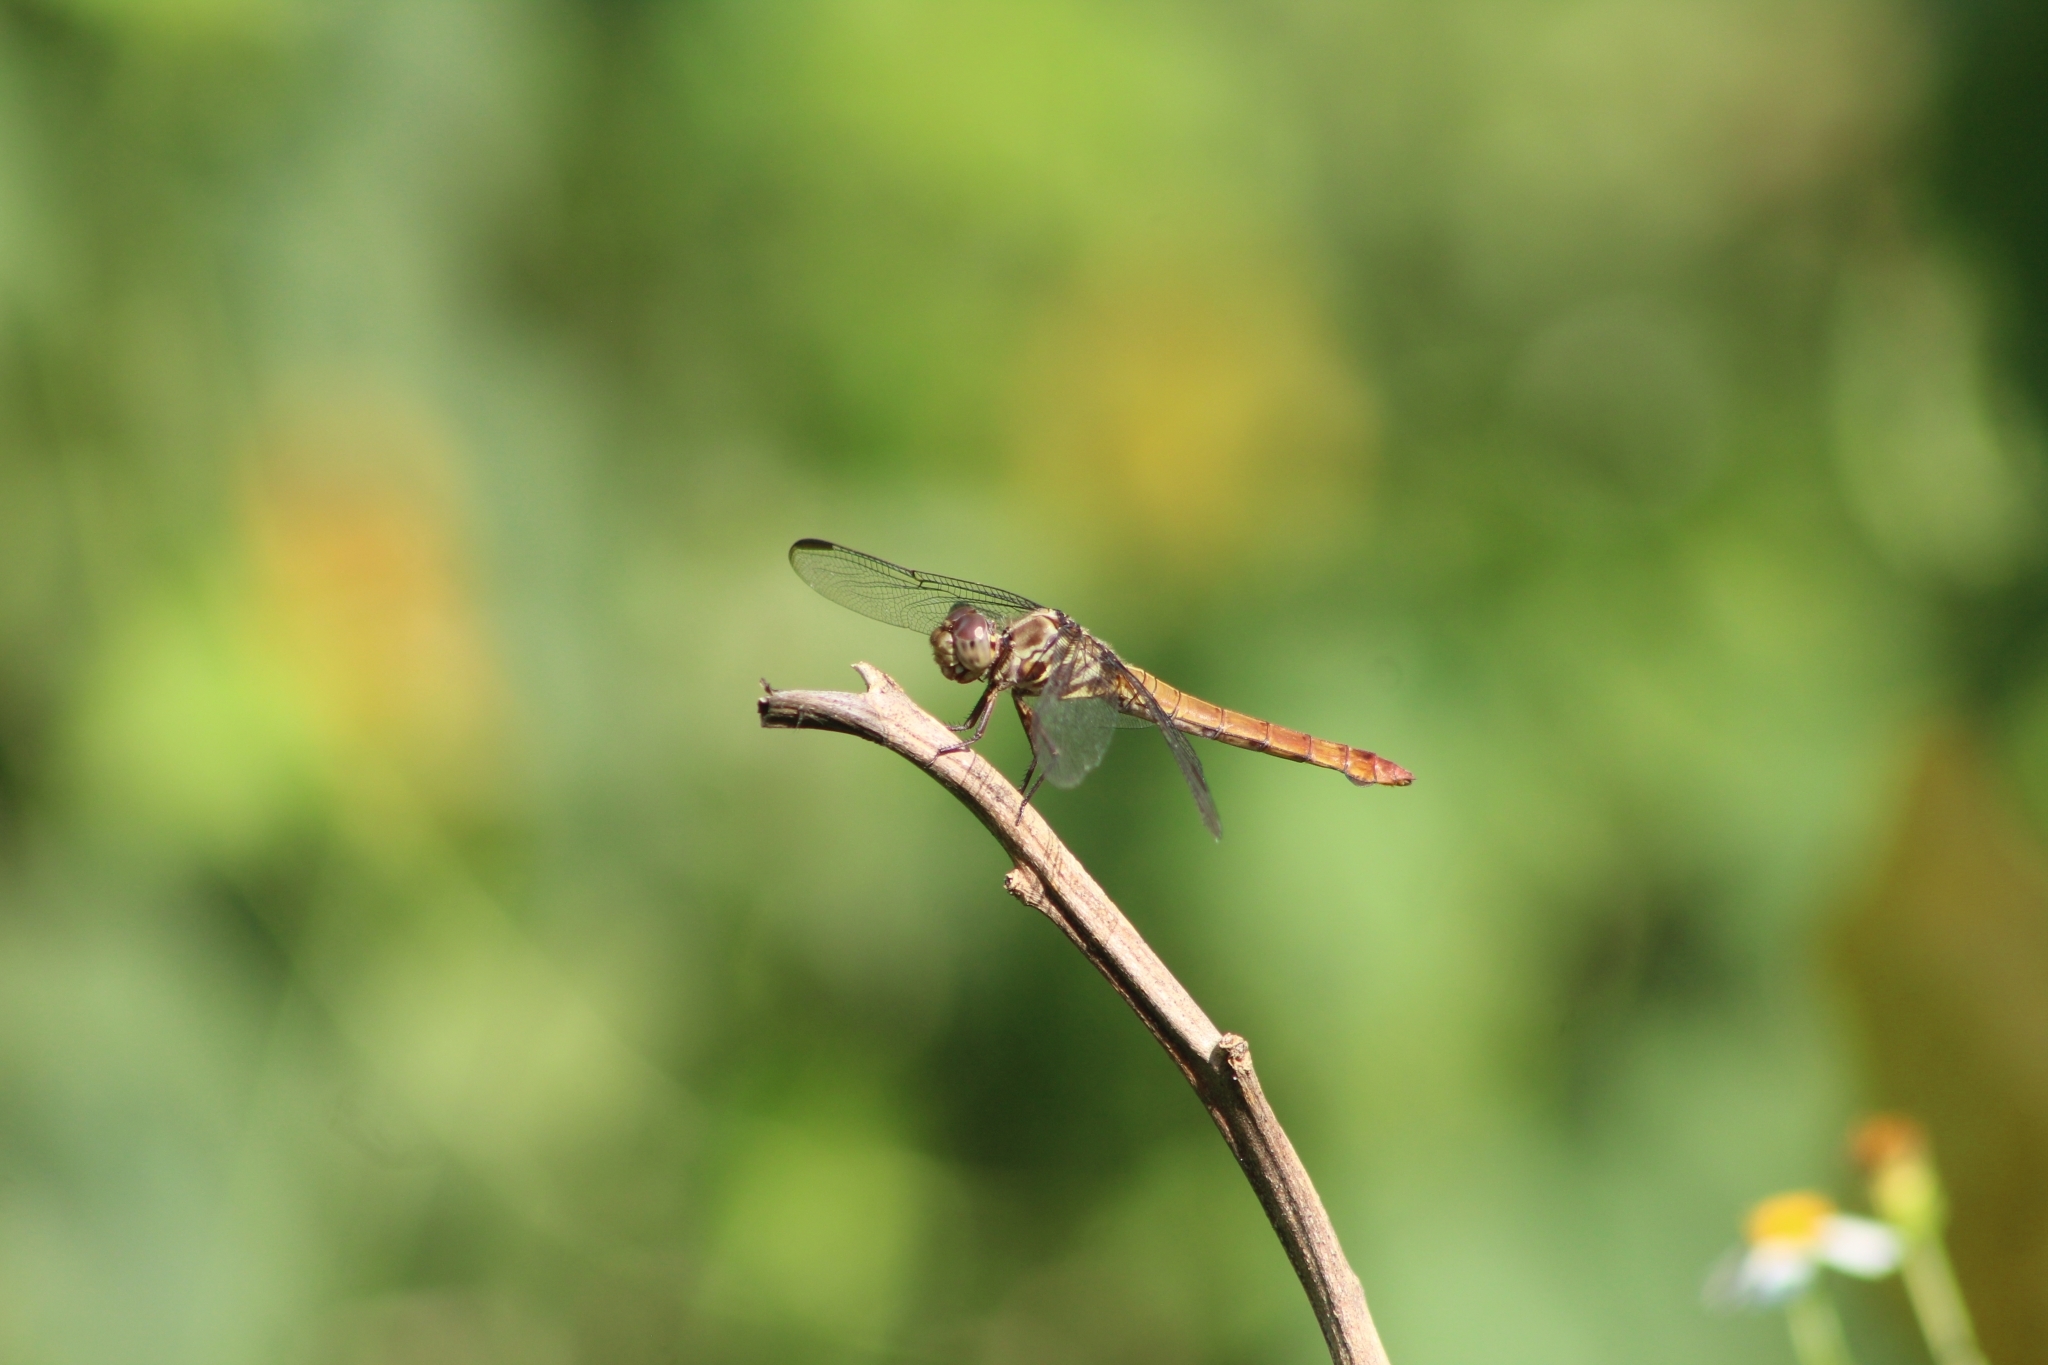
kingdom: Animalia
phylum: Arthropoda
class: Insecta
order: Odonata
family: Libellulidae
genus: Orthemis
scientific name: Orthemis ferruginea
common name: Roseate skimmer
